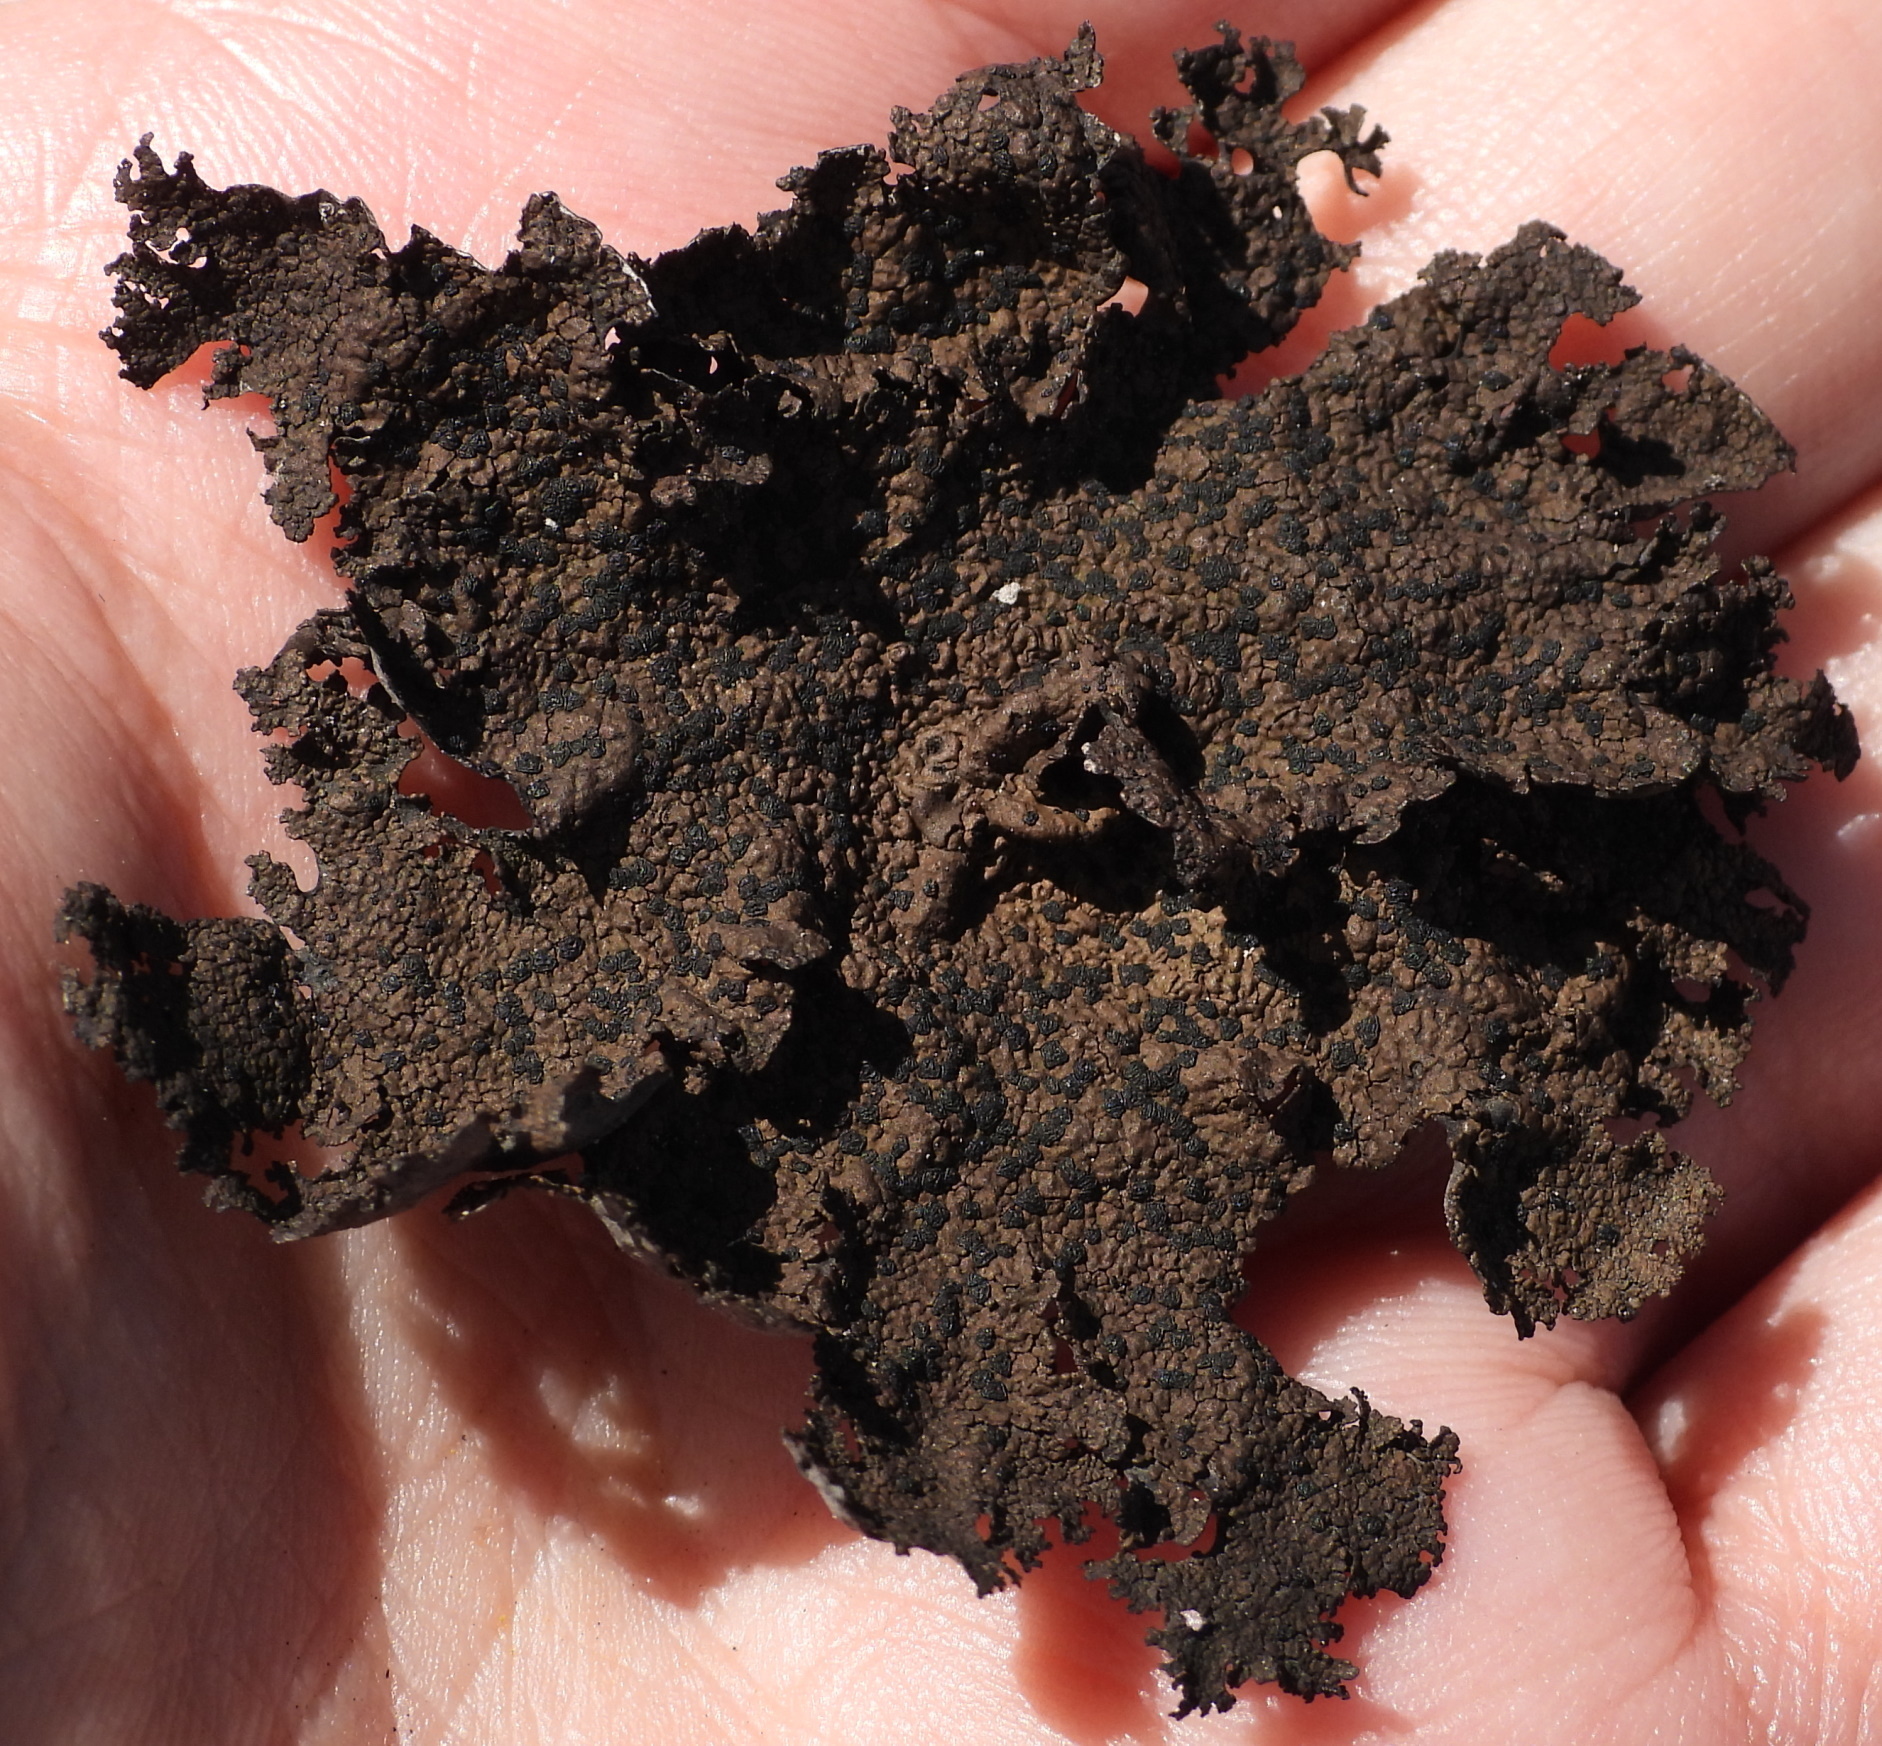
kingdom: Fungi
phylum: Ascomycota
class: Lecanoromycetes
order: Umbilicariales
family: Umbilicariaceae
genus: Umbilicaria
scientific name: Umbilicaria torrefacta
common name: Punctured rock tripe lichen
